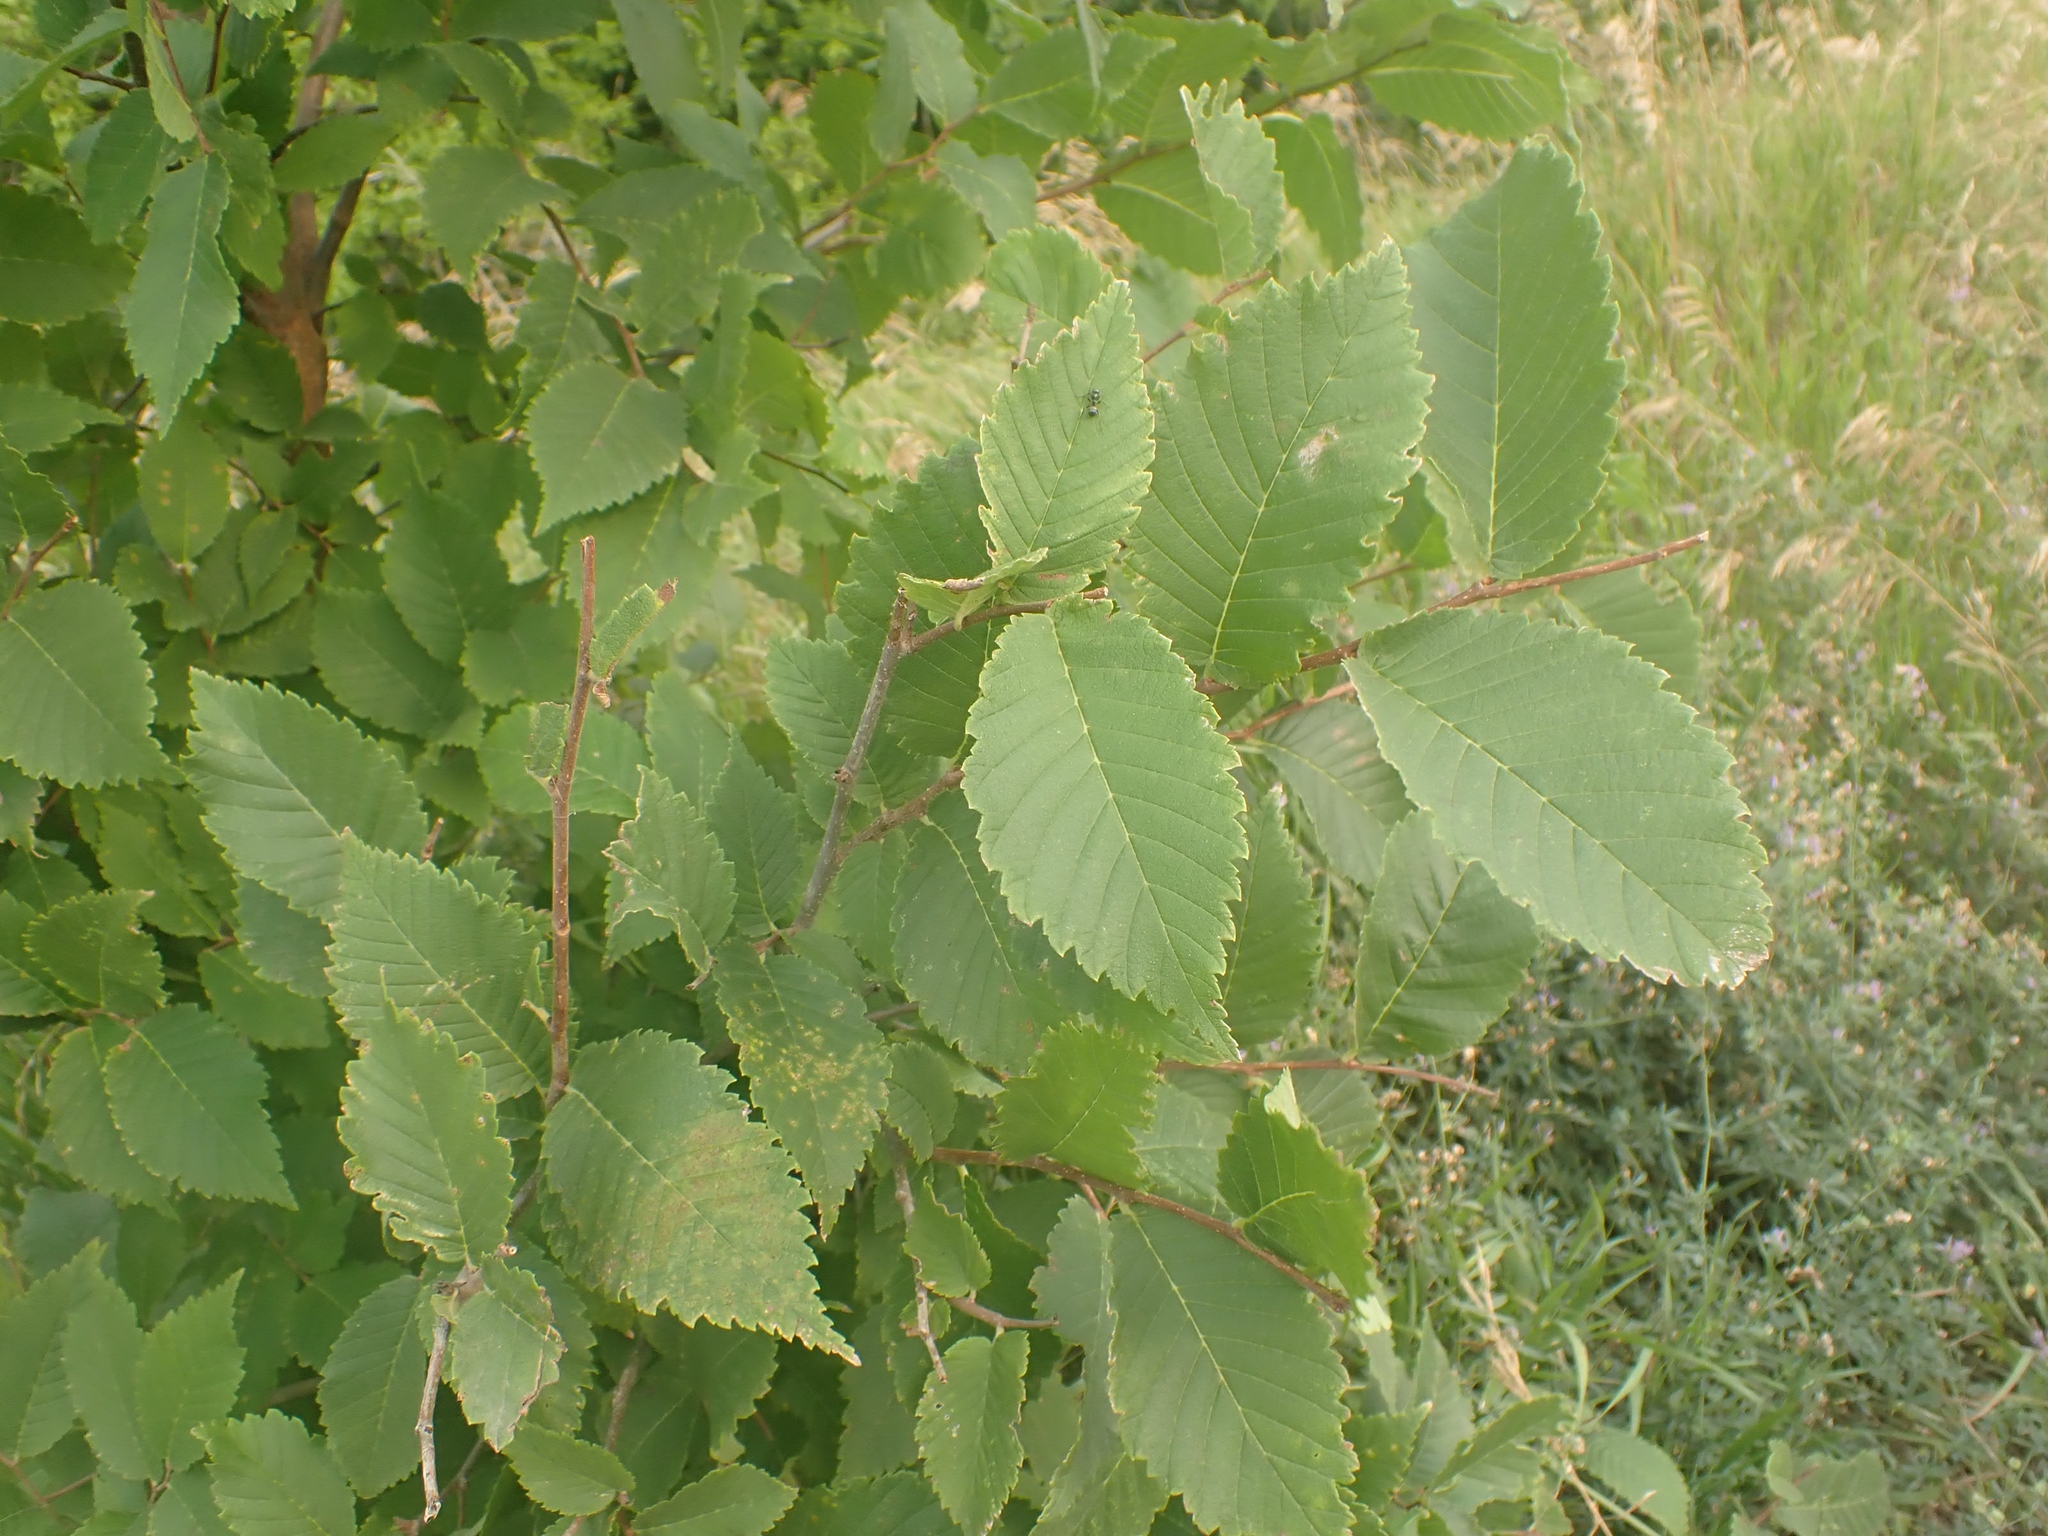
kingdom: Plantae
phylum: Tracheophyta
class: Magnoliopsida
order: Rosales
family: Ulmaceae
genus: Ulmus
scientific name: Ulmus americana
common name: American elm
